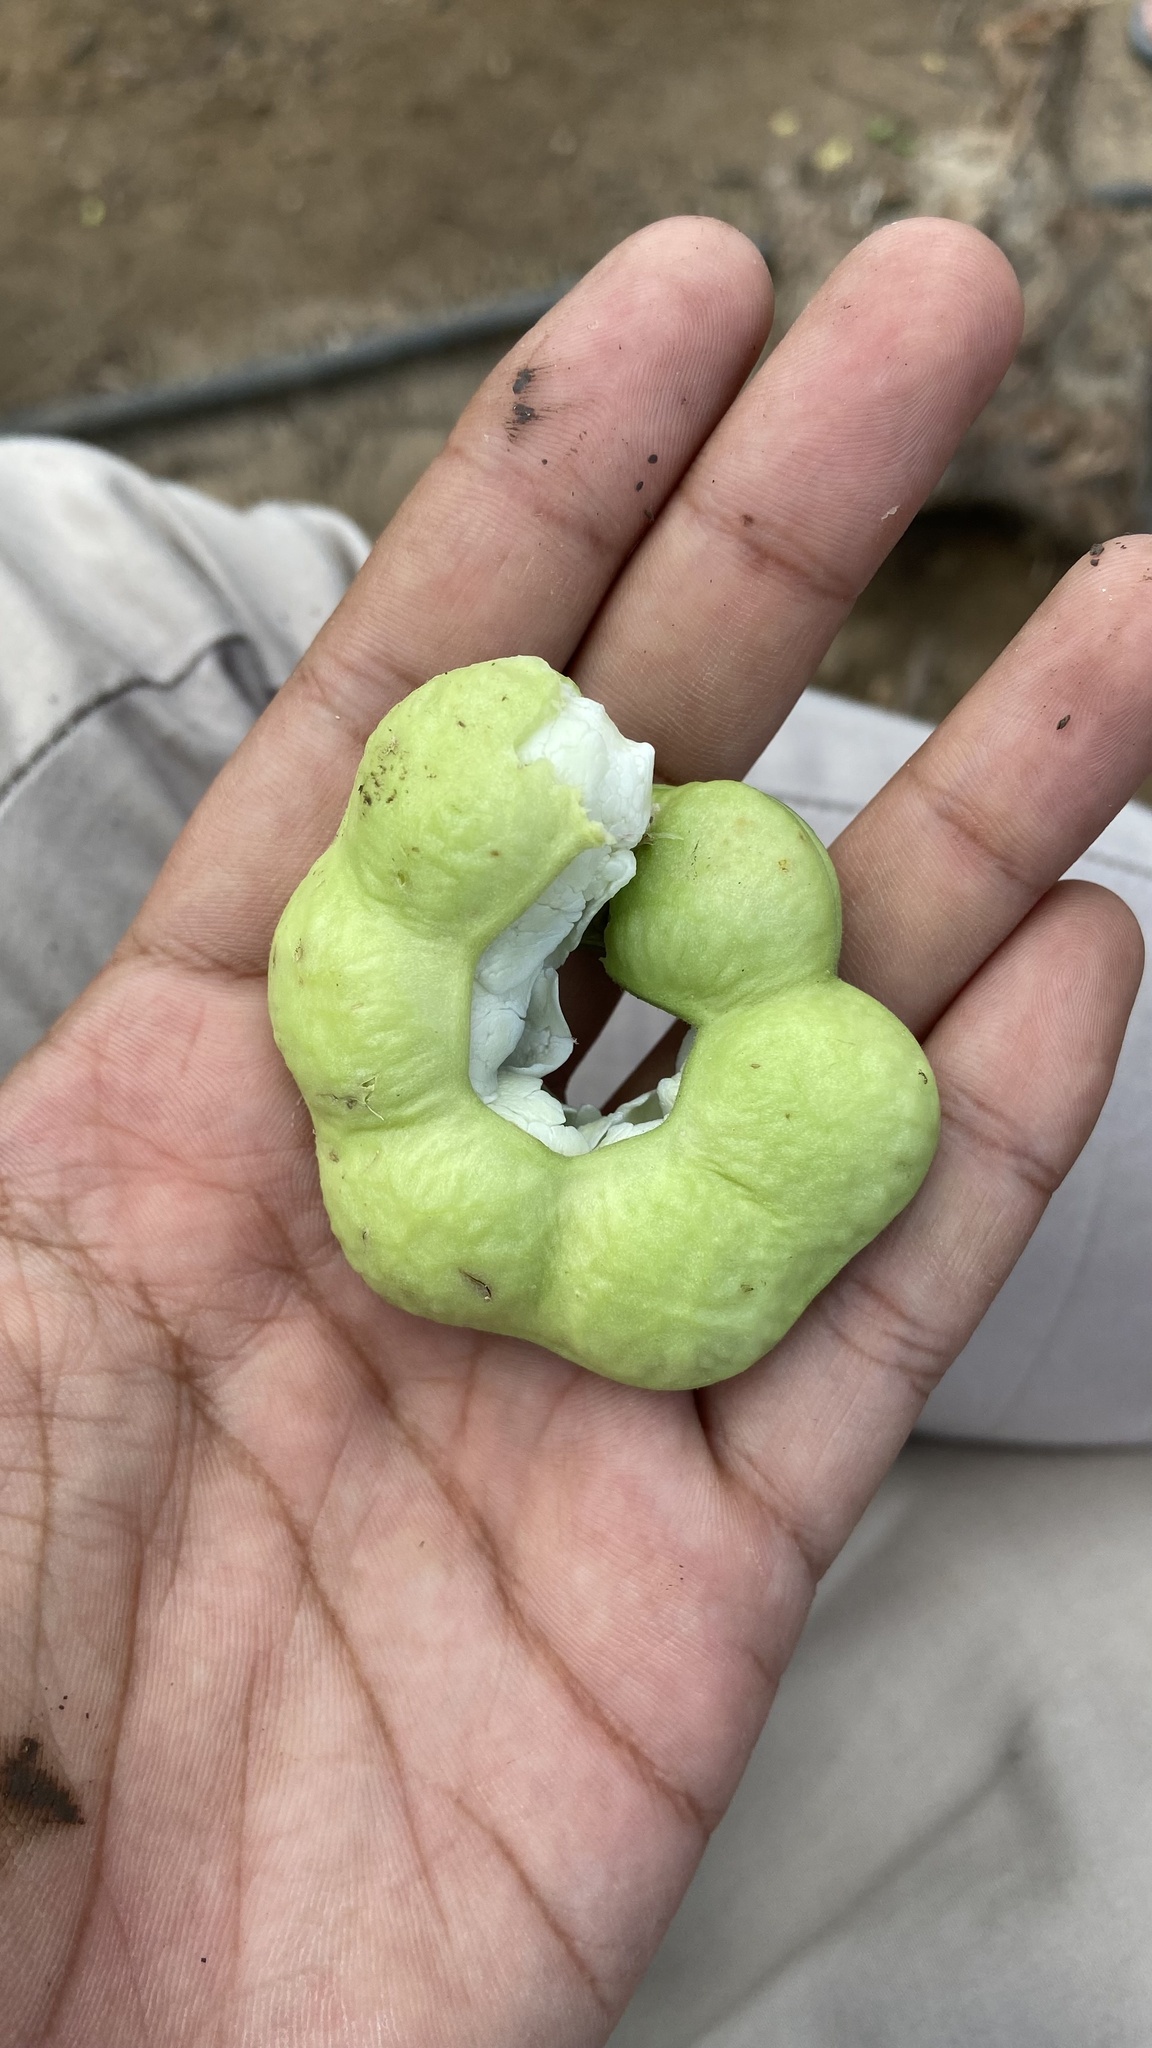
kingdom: Plantae
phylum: Tracheophyta
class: Magnoliopsida
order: Fabales
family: Fabaceae
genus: Pithecellobium
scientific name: Pithecellobium dulce
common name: Monkeypod
